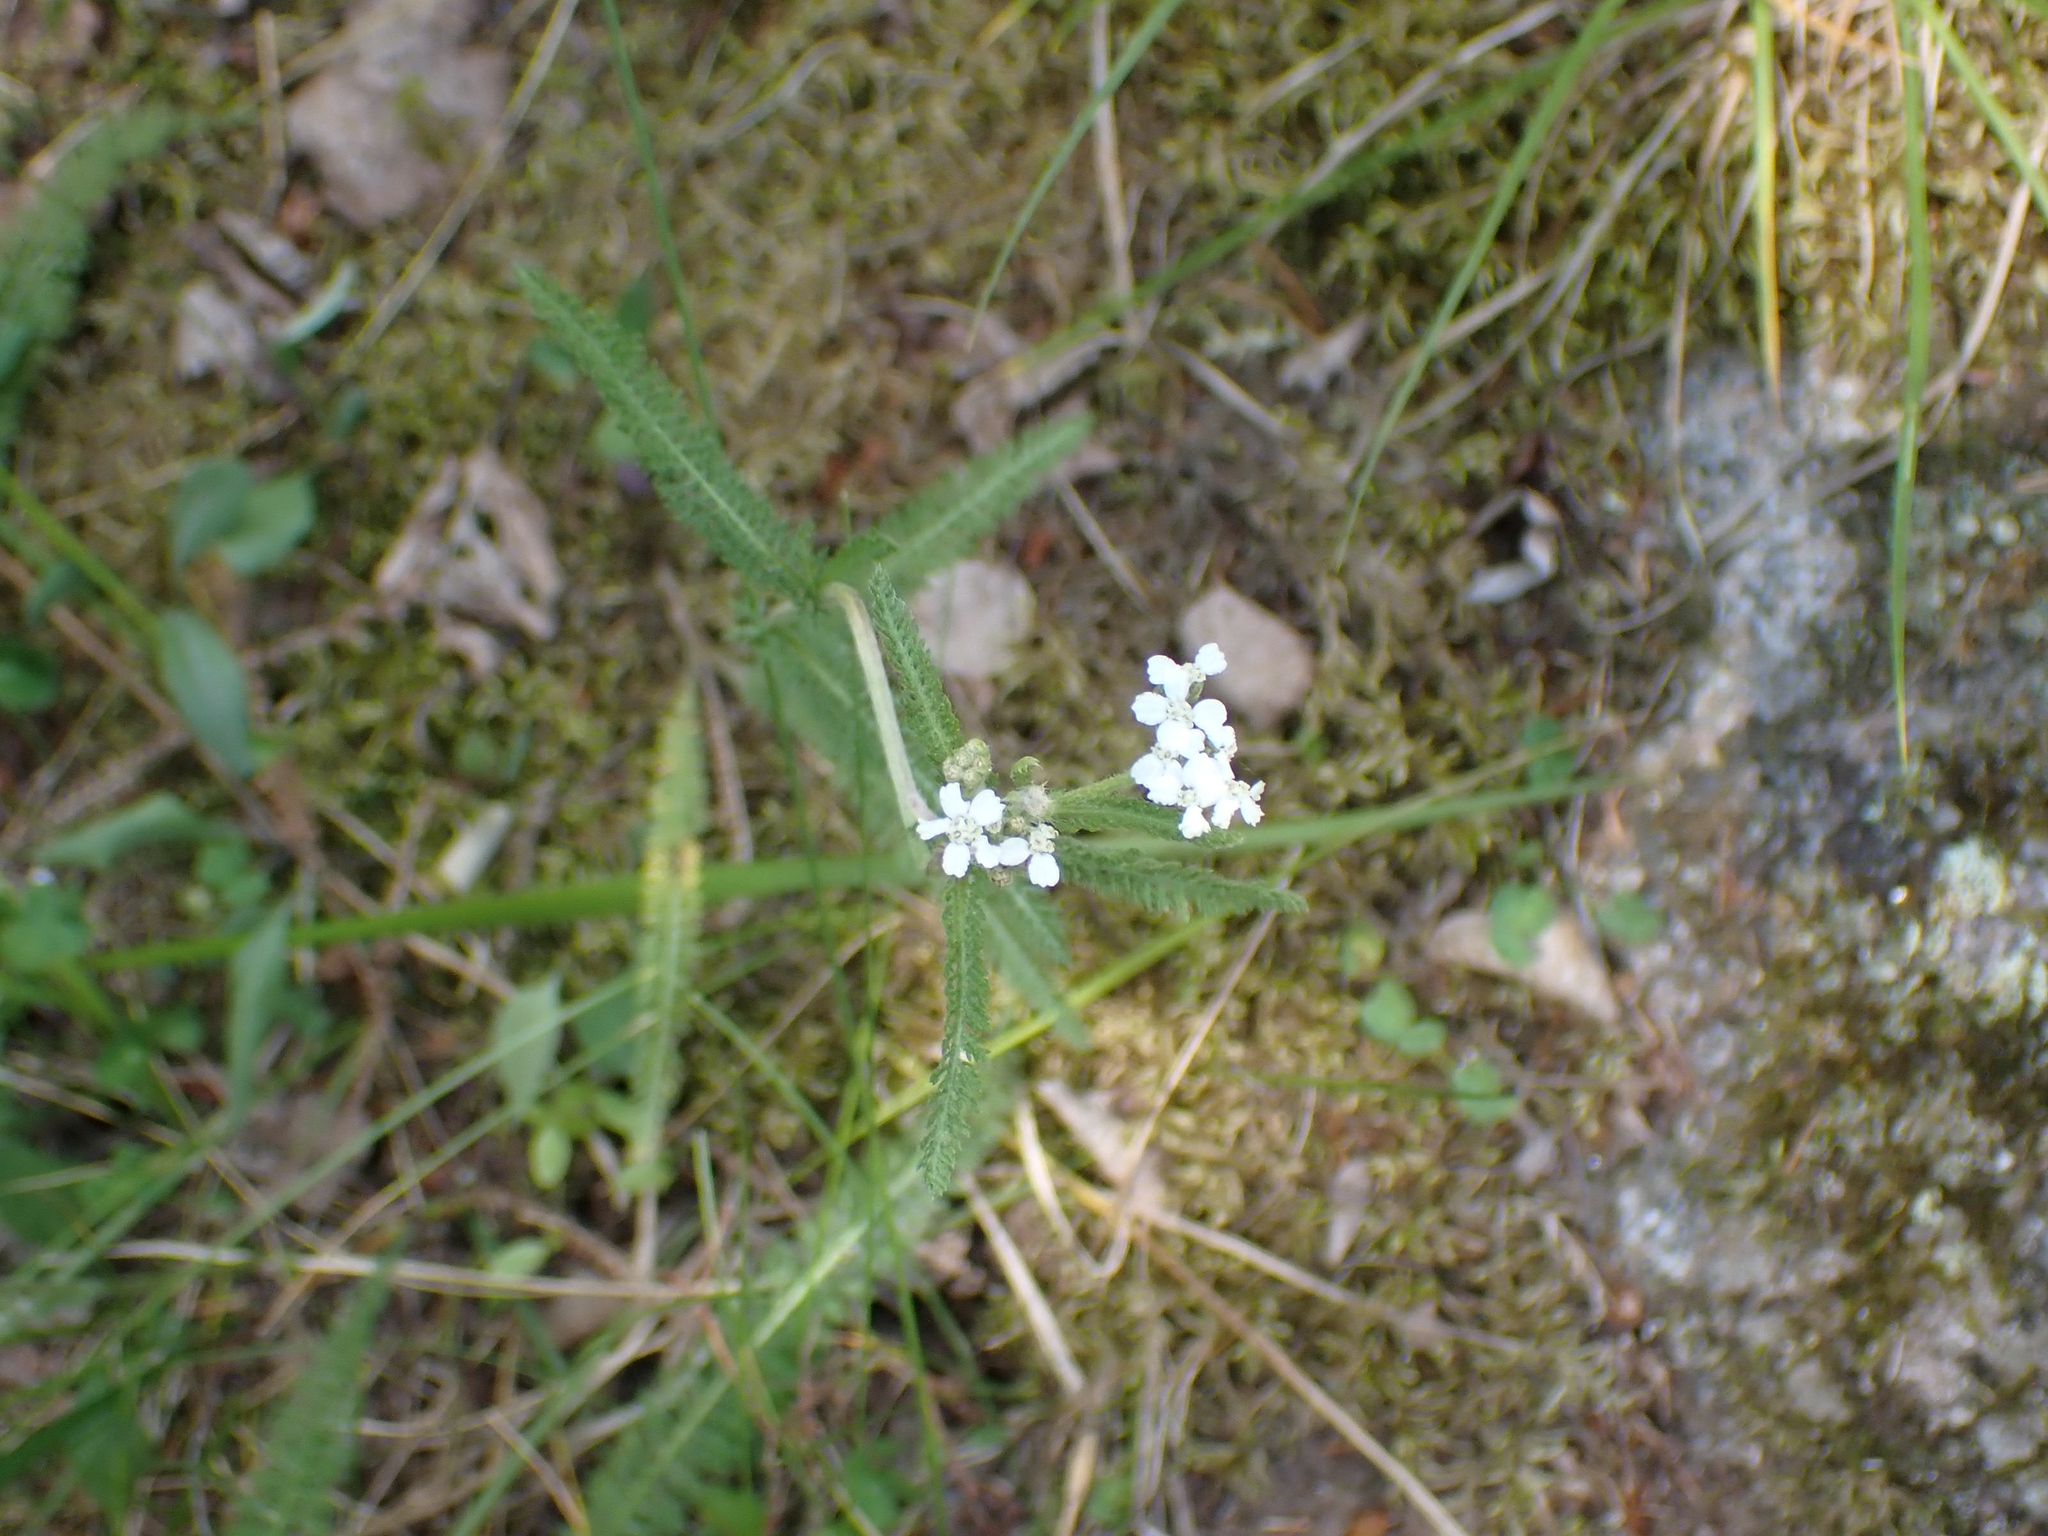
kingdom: Plantae
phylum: Tracheophyta
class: Magnoliopsida
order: Asterales
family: Asteraceae
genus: Achillea
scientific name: Achillea millefolium
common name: Yarrow
